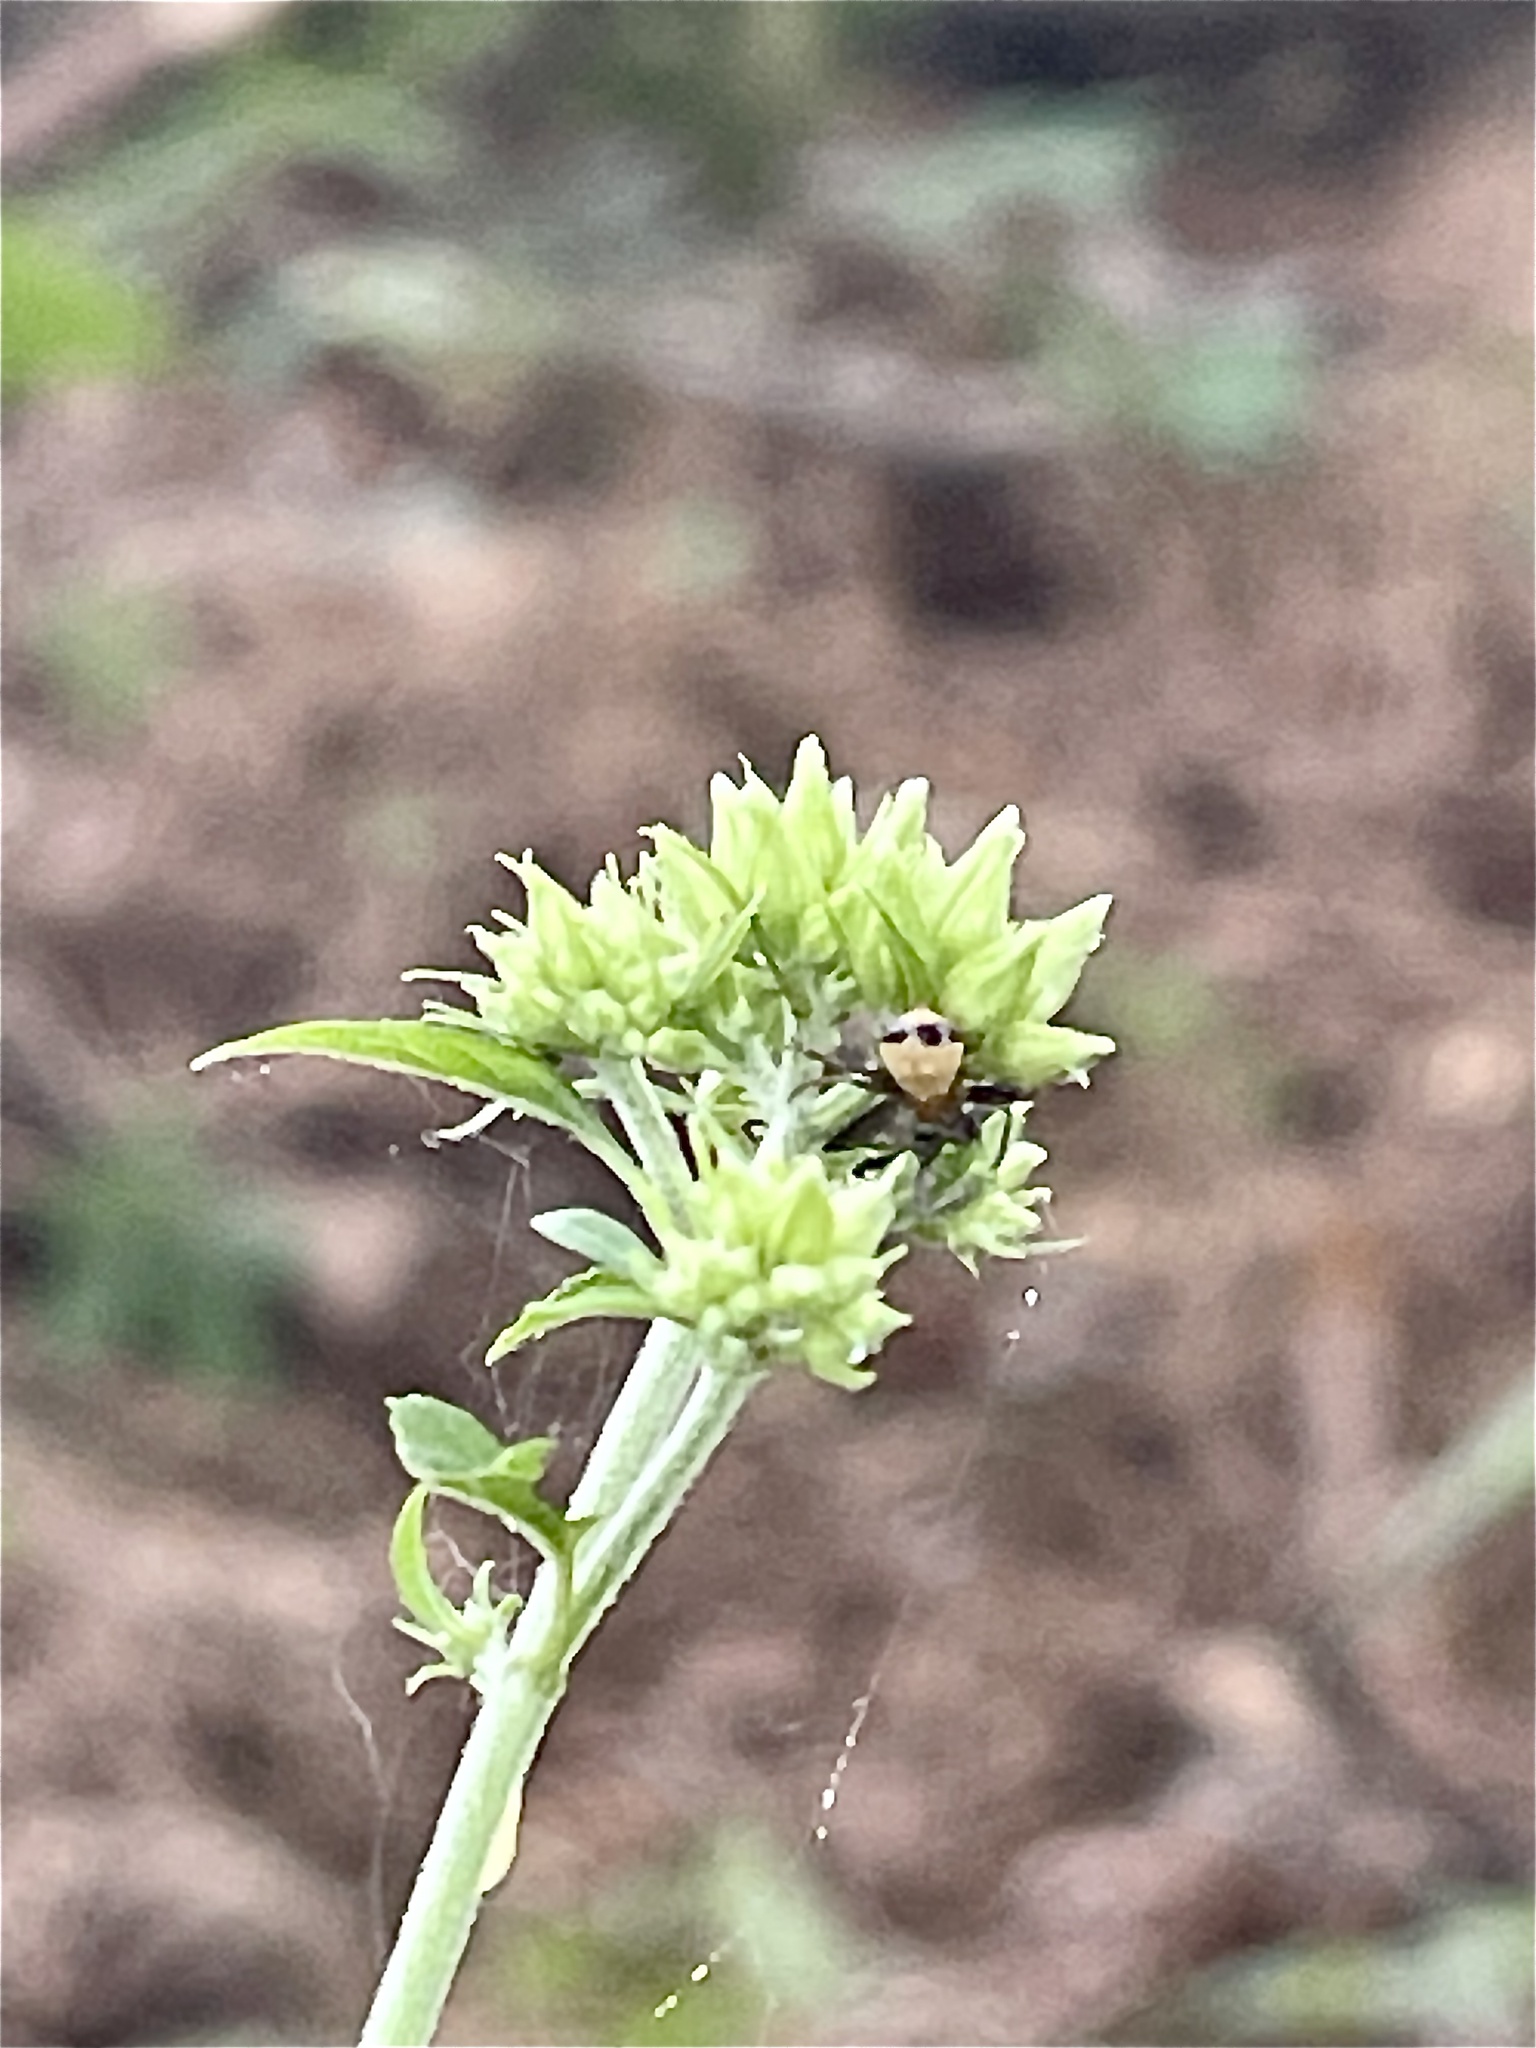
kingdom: Animalia
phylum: Arthropoda
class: Arachnida
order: Araneae
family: Thomisidae
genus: Synema
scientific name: Synema parvulum
